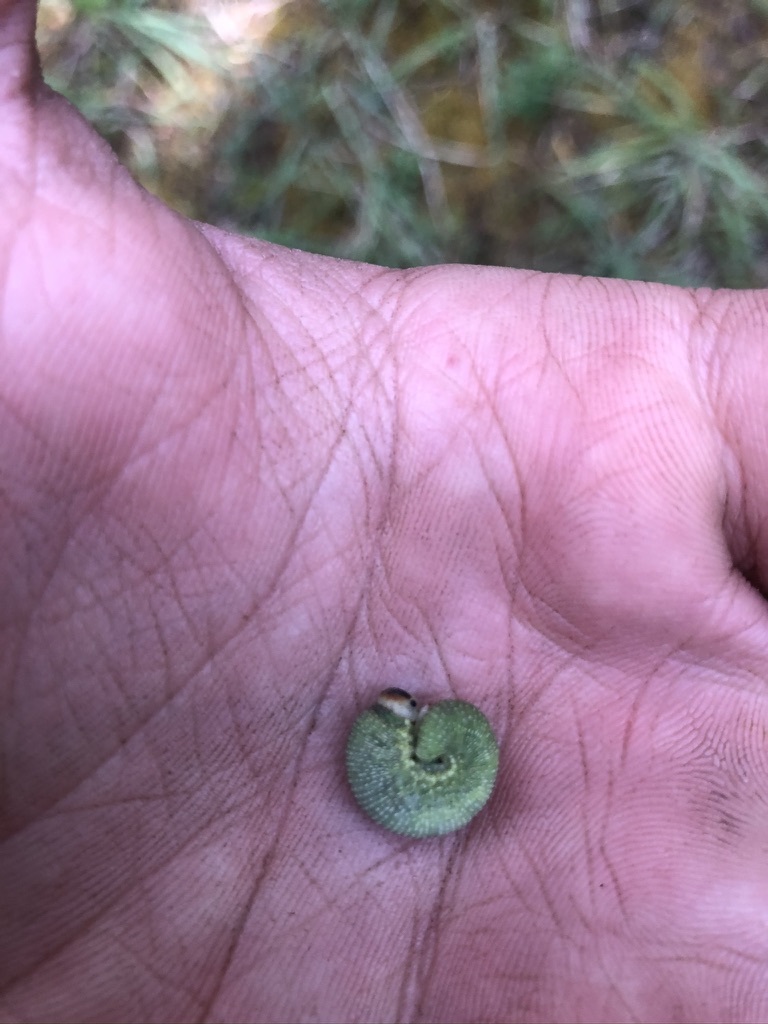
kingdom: Animalia
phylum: Arthropoda
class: Insecta
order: Hymenoptera
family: Cimbicidae
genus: Trichiosoma
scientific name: Trichiosoma triangulum
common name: Giant birch sawfly
